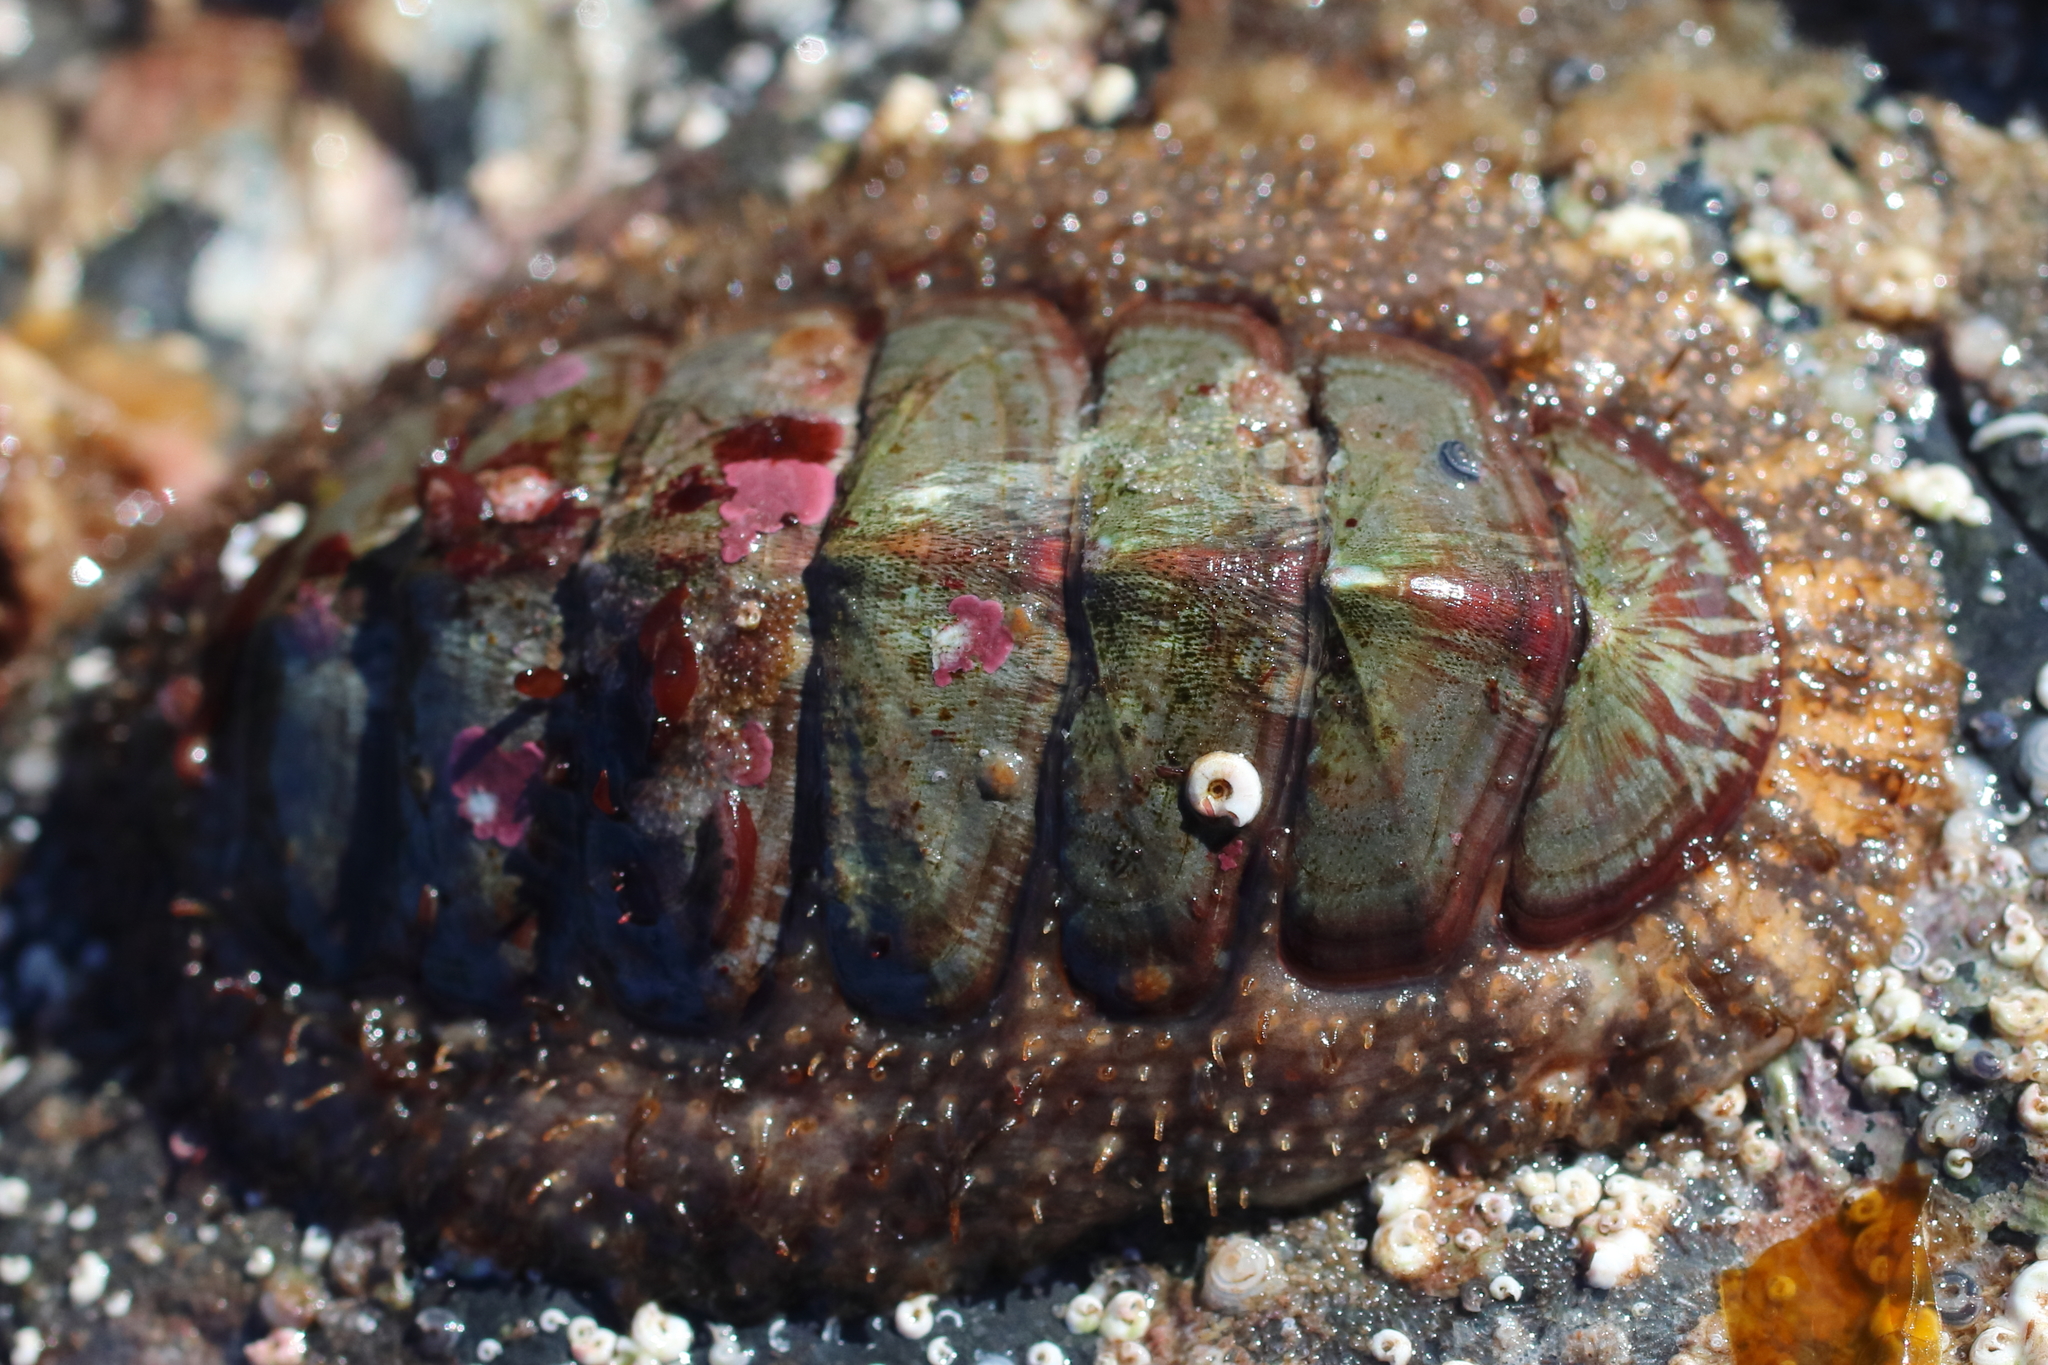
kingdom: Animalia
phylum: Mollusca
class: Polyplacophora
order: Chitonida
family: Mopaliidae
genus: Mopalia
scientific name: Mopalia lignosa
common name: Woody chiton
